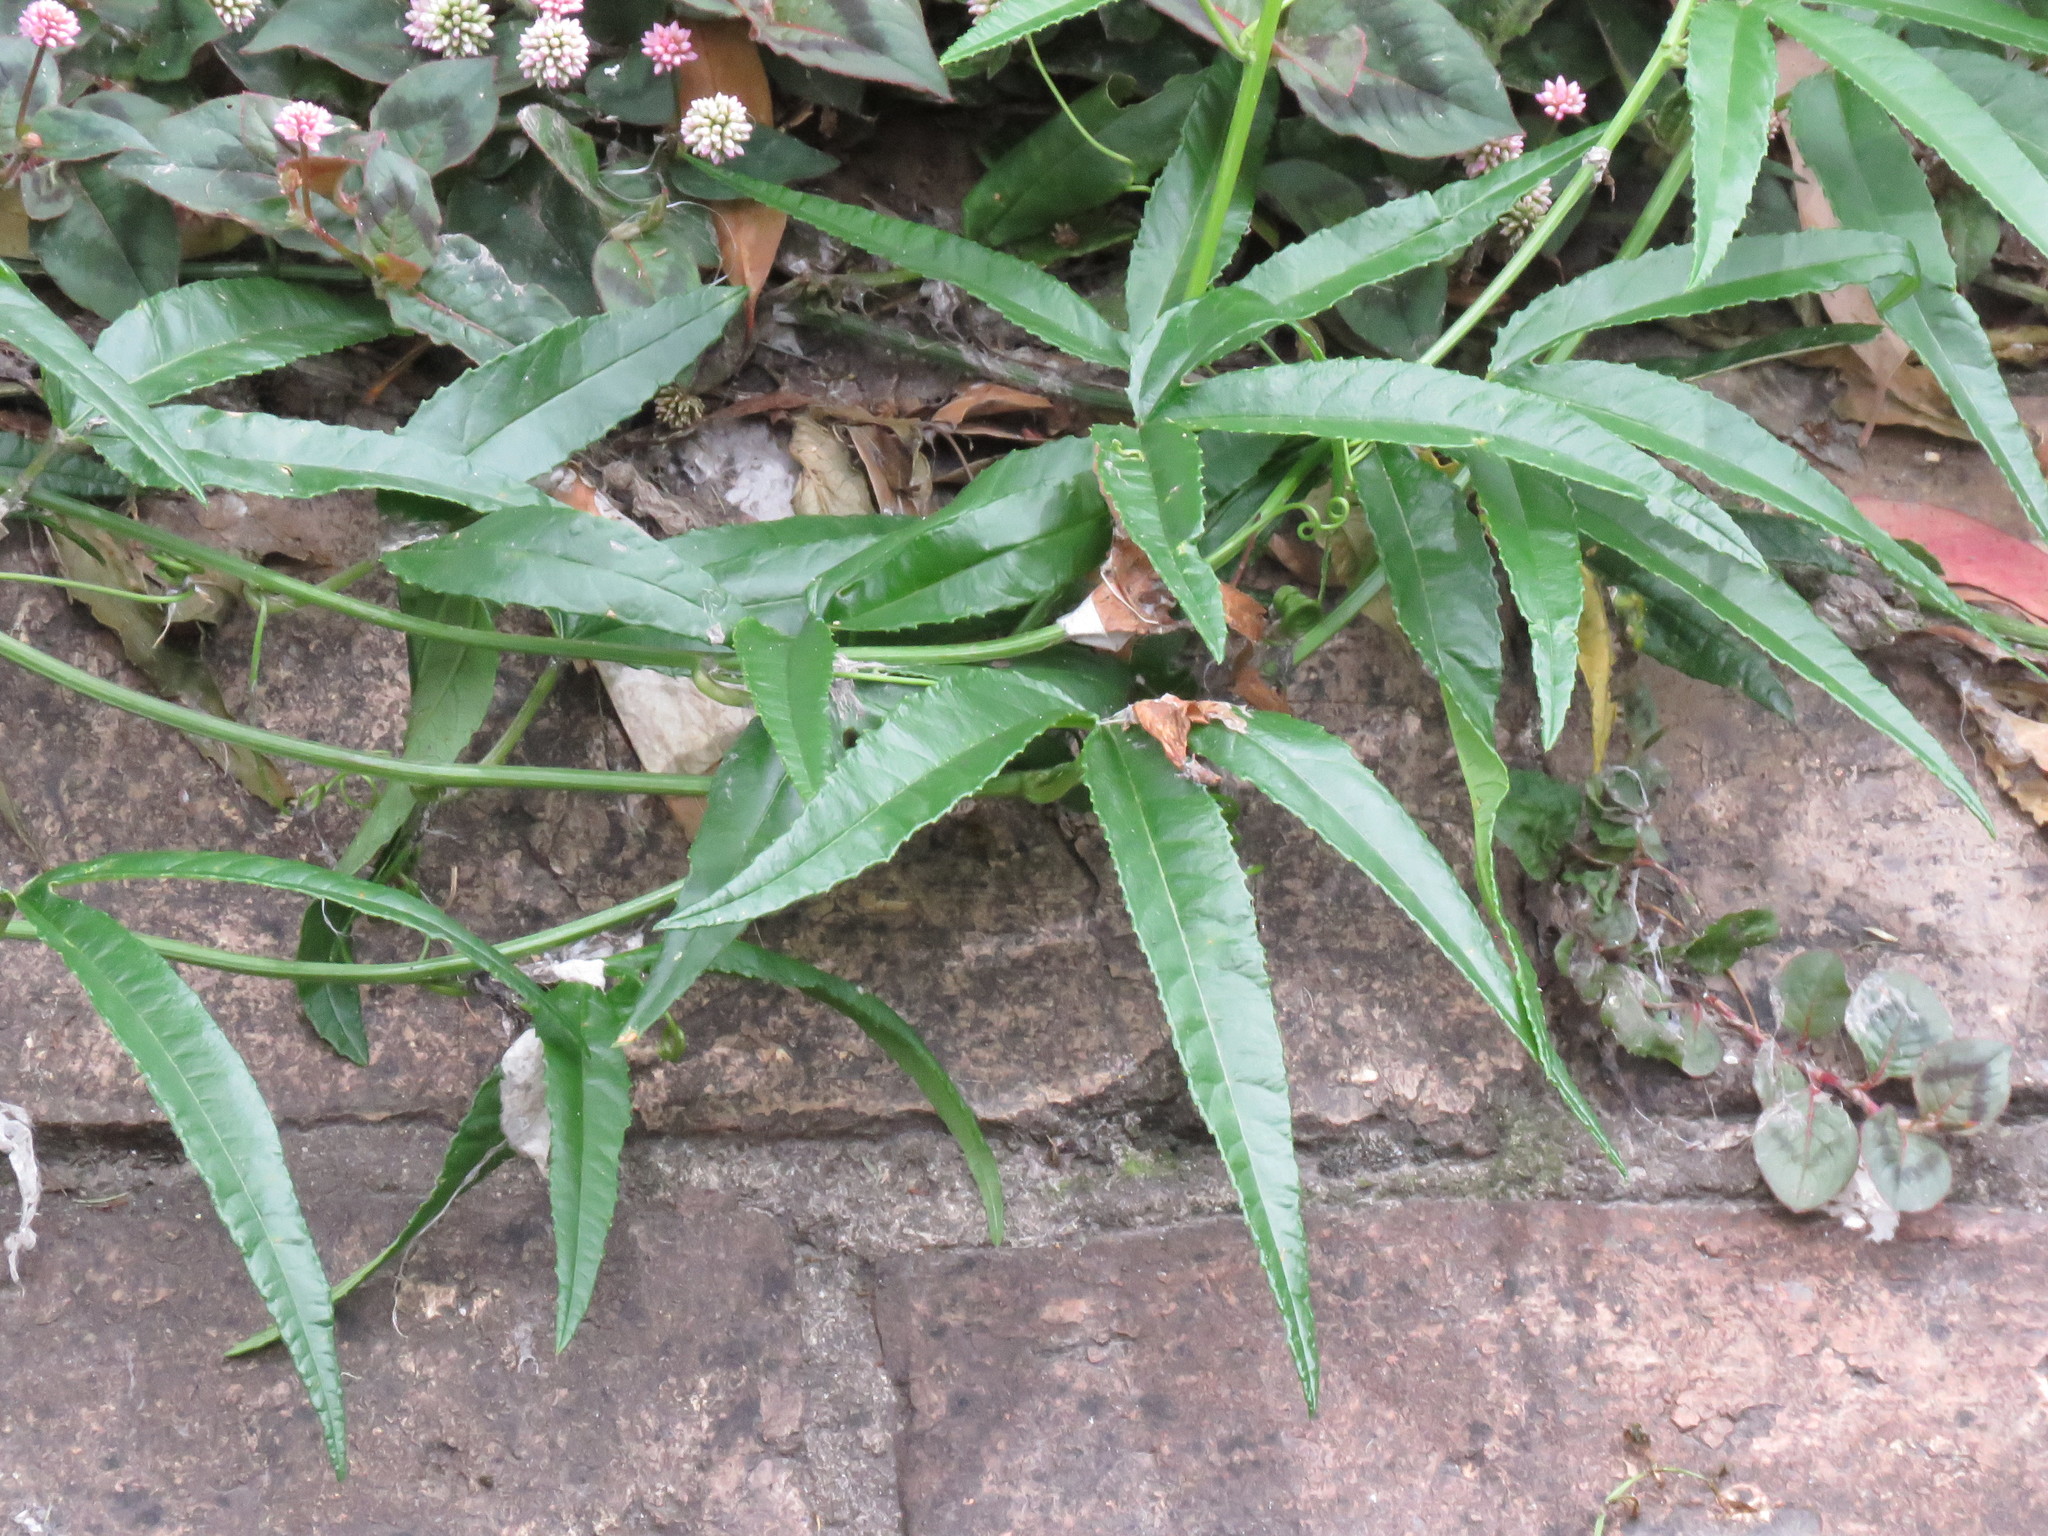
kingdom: Plantae
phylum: Tracheophyta
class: Magnoliopsida
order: Malpighiales
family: Passifloraceae
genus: Passiflora
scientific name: Passiflora tarminiana
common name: Banana poka
